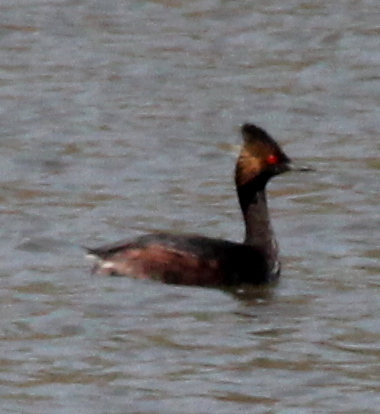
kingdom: Animalia
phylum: Chordata
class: Aves
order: Podicipediformes
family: Podicipedidae
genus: Podiceps
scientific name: Podiceps nigricollis
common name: Black-necked grebe
